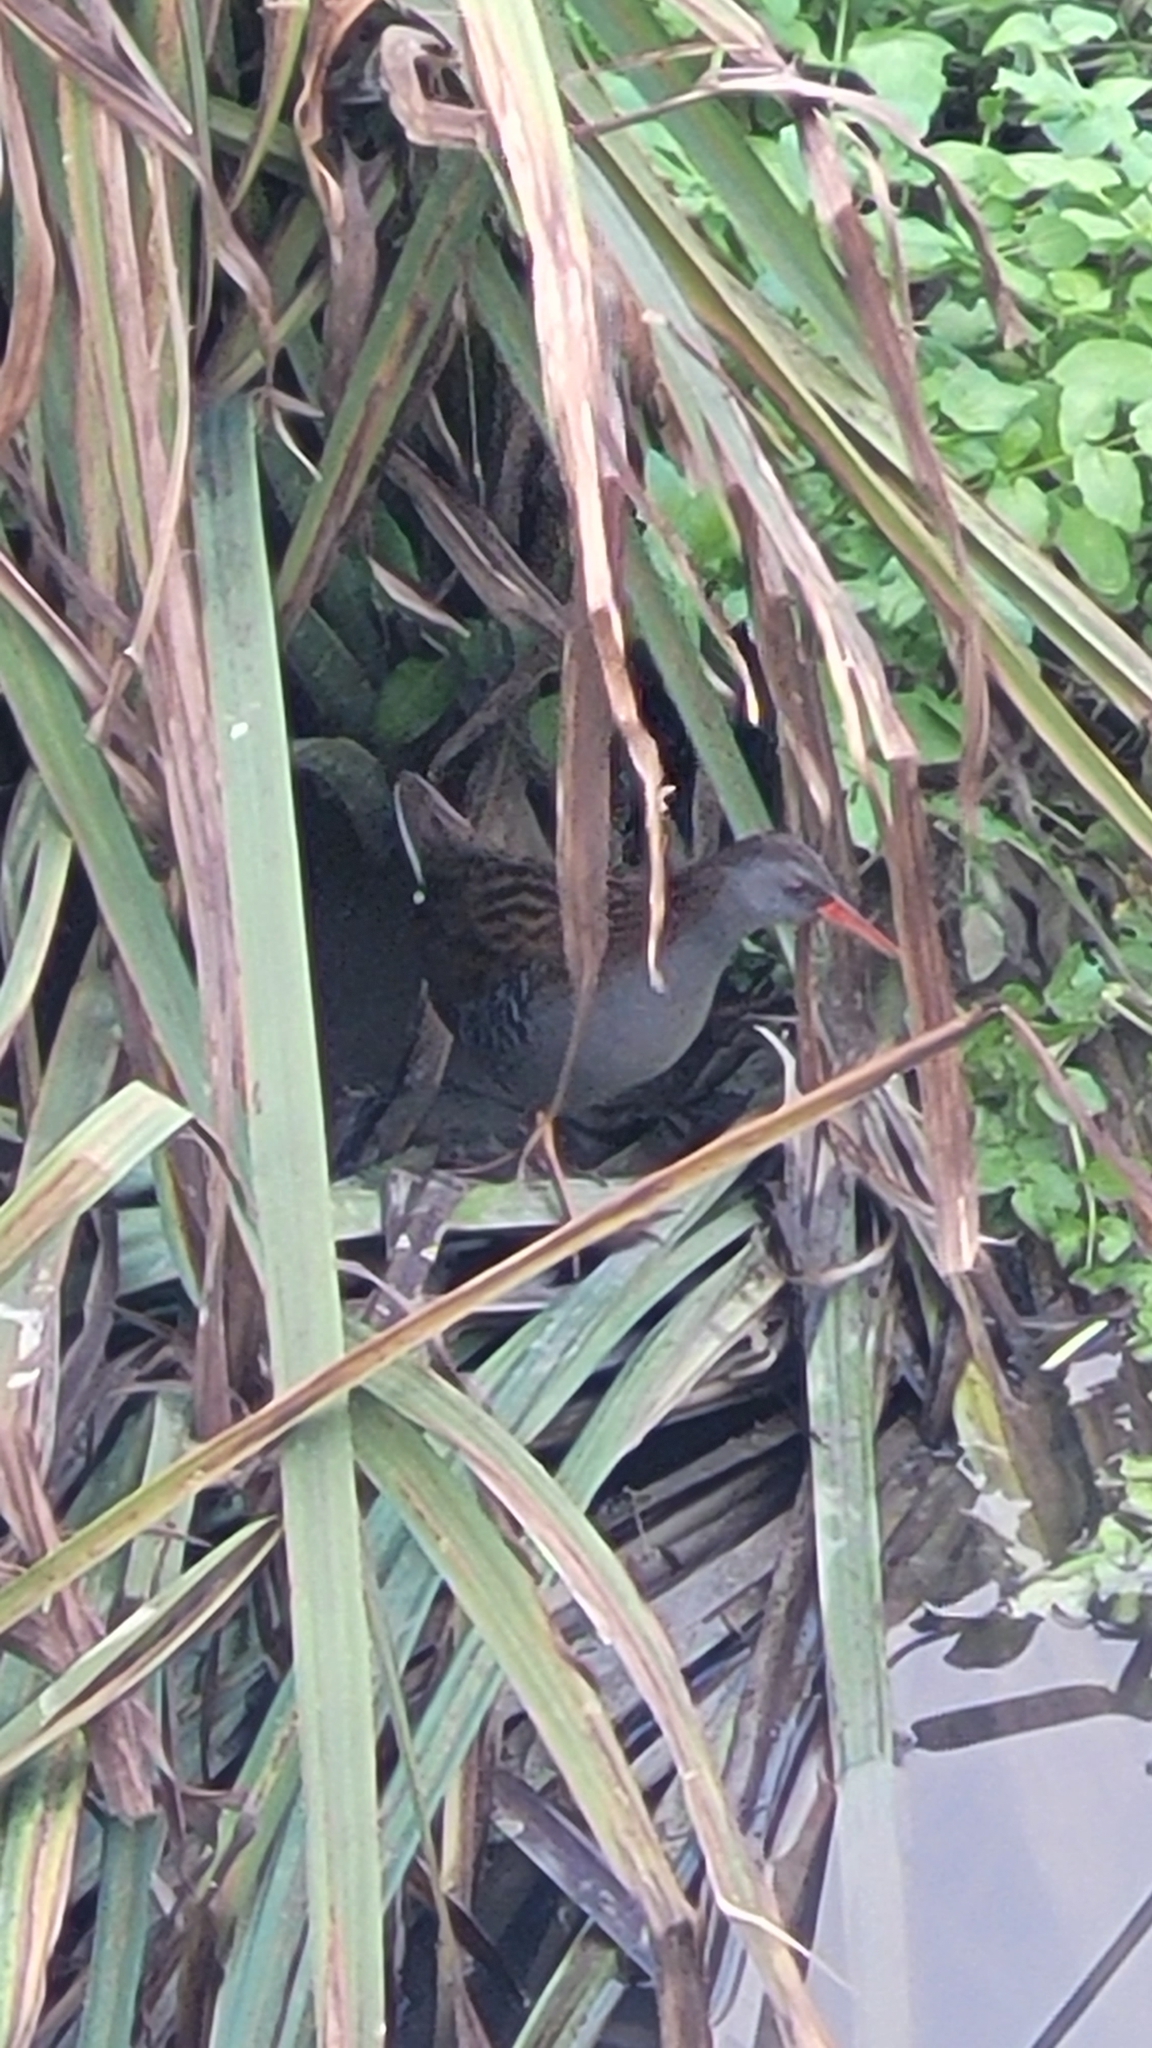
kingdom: Animalia
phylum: Chordata
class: Aves
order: Gruiformes
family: Rallidae
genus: Rallus
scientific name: Rallus aquaticus
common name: Water rail
